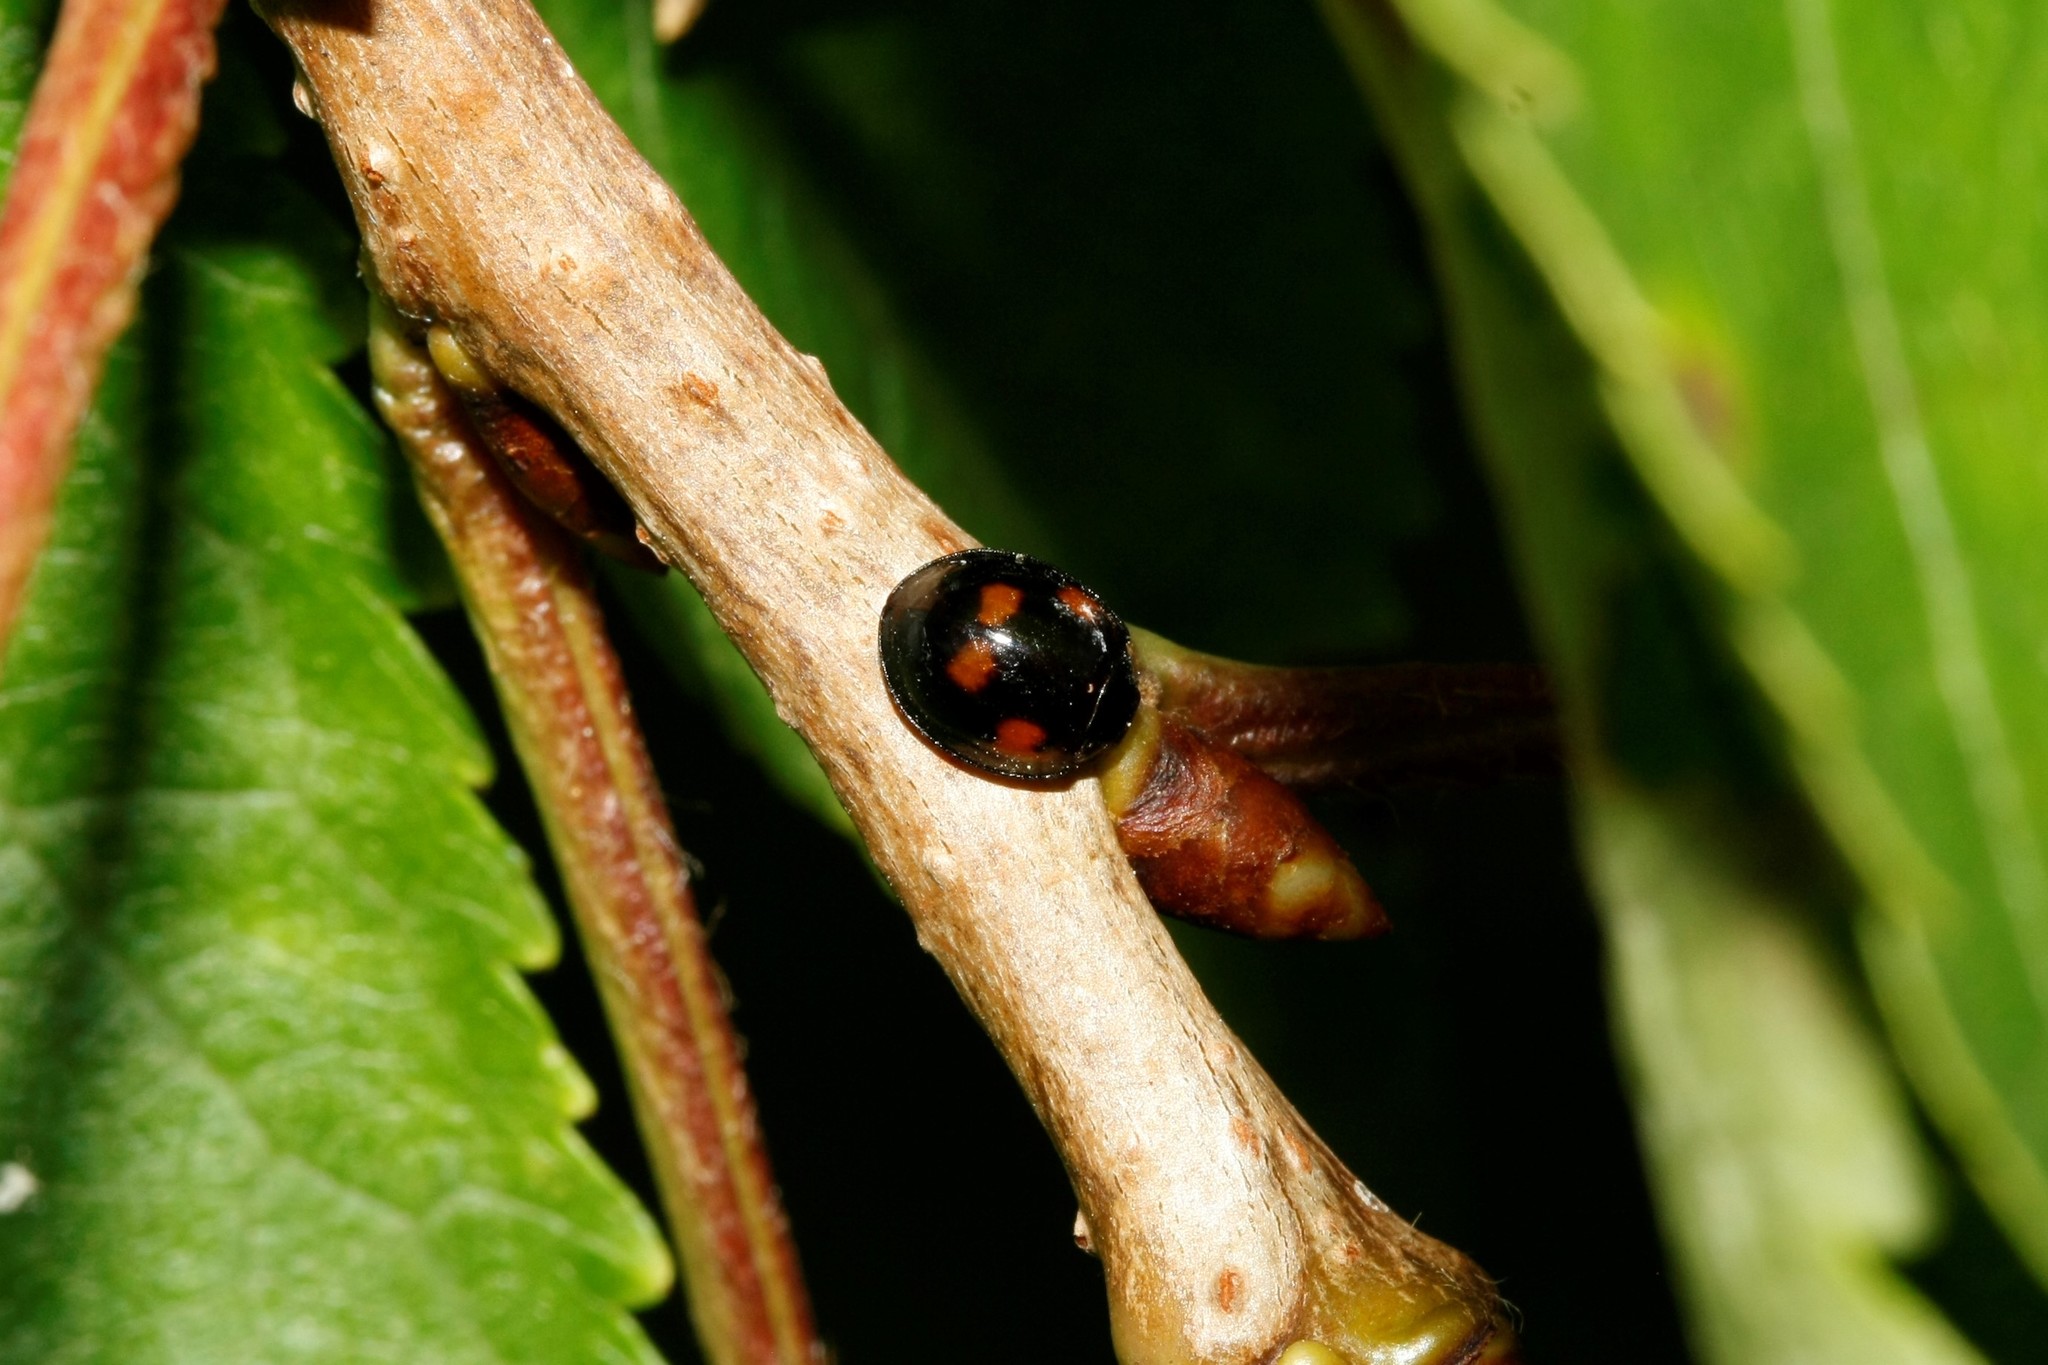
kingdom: Animalia
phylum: Arthropoda
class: Insecta
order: Coleoptera
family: Coccinellidae
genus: Brumus
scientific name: Brumus quadripustulatus
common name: Ladybird beetle
